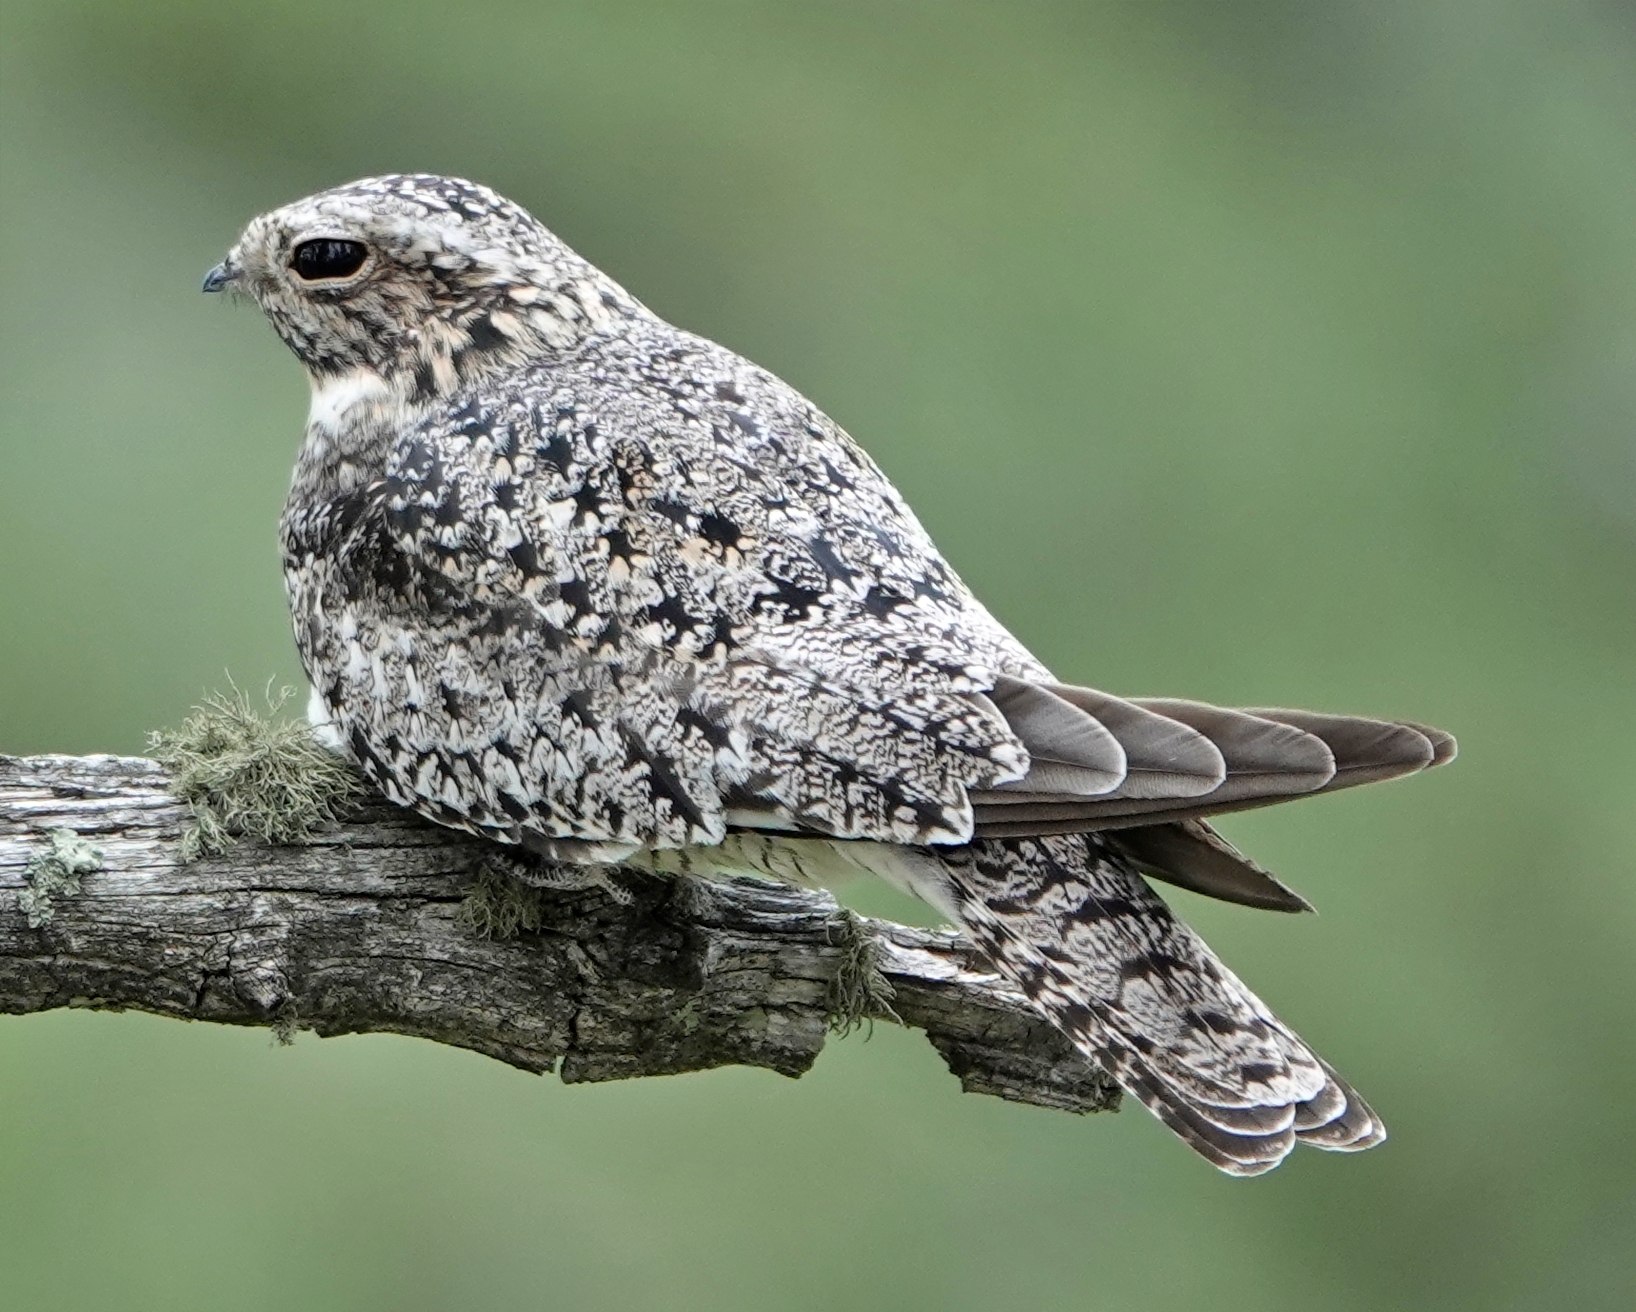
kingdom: Animalia
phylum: Chordata
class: Aves
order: Caprimulgiformes
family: Caprimulgidae
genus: Chordeiles
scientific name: Chordeiles minor
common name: Common nighthawk
